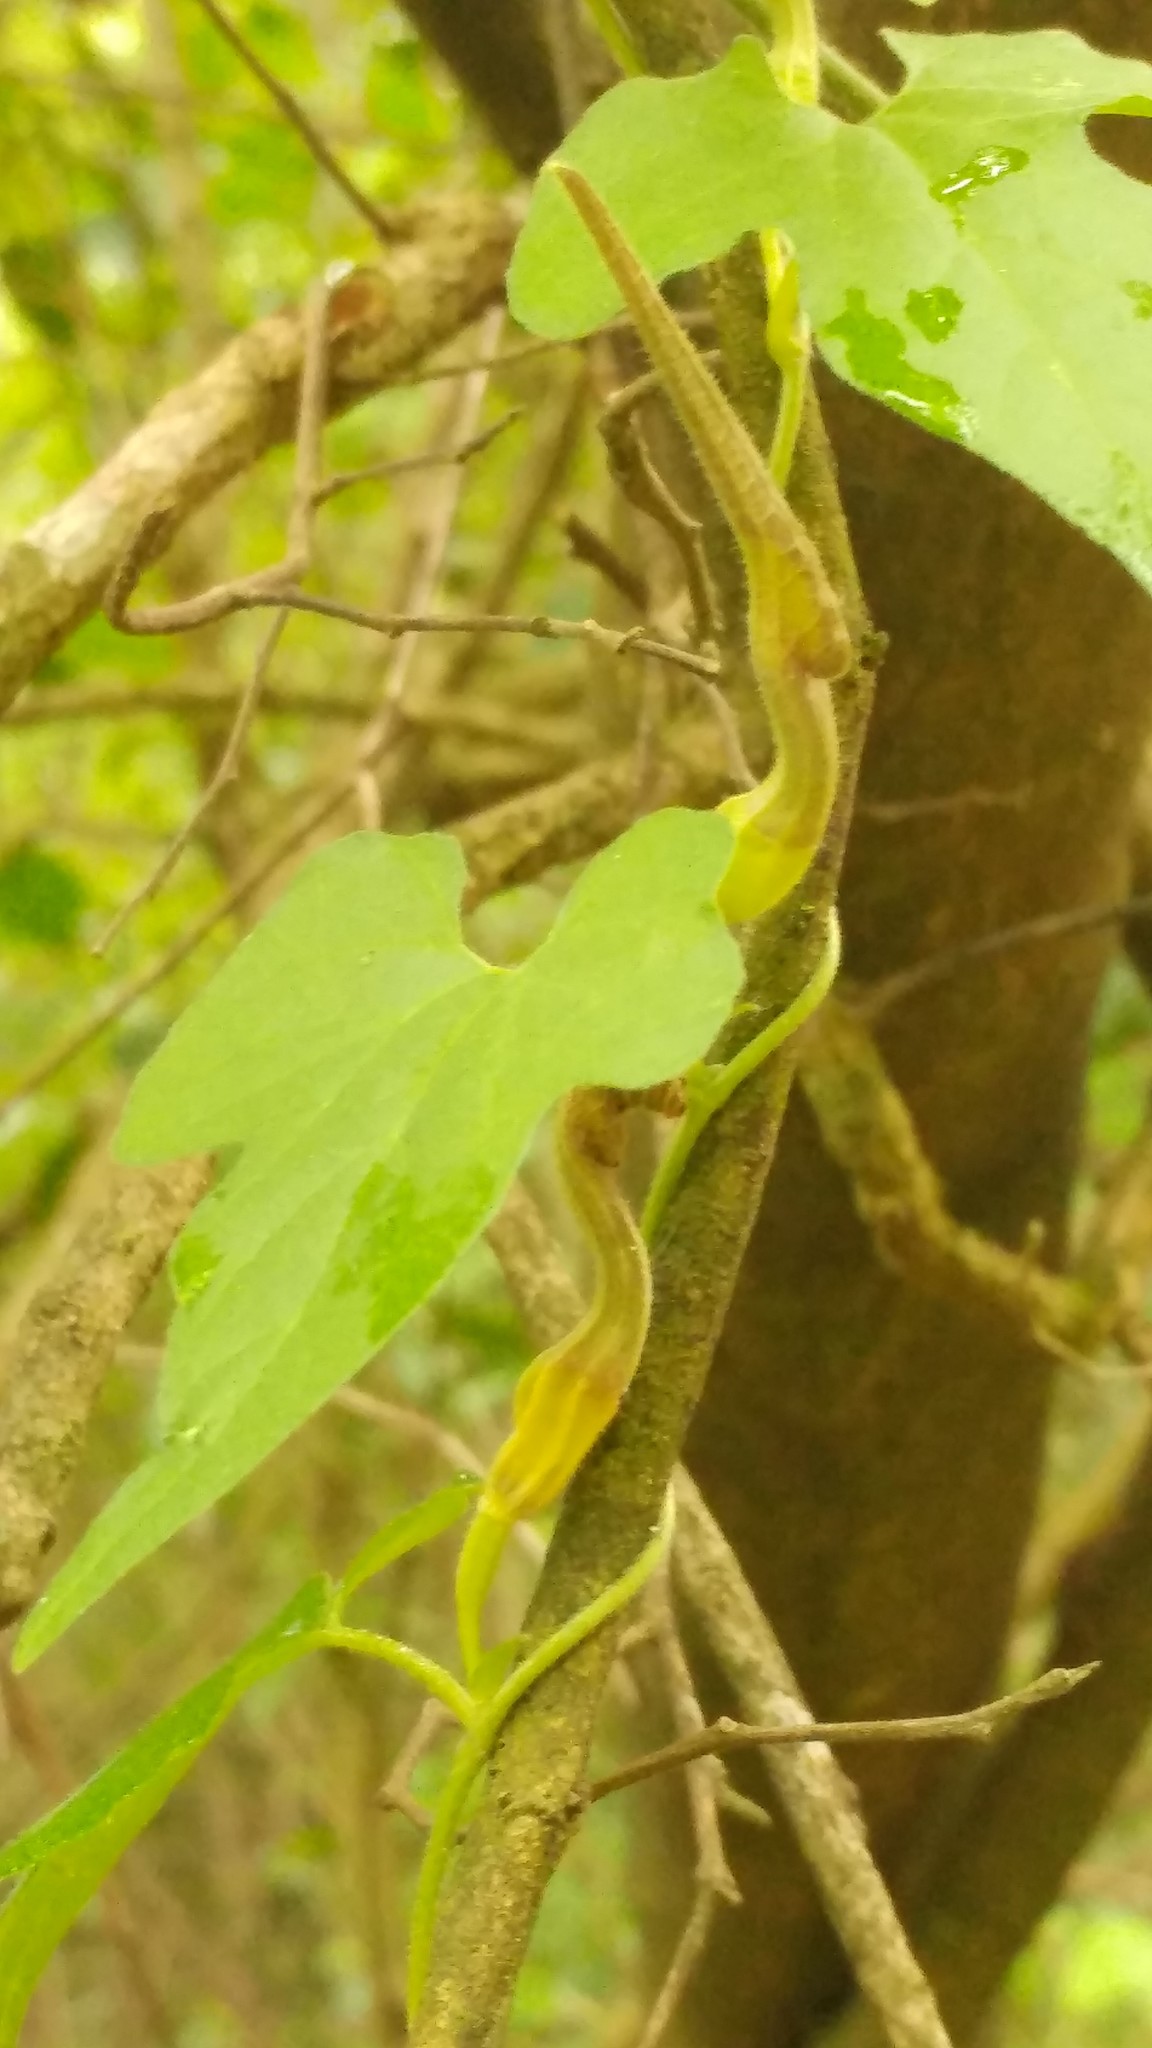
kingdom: Plantae
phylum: Tracheophyta
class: Magnoliopsida
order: Piperales
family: Aristolochiaceae
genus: Aristolochia
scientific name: Aristolochia pentandra
